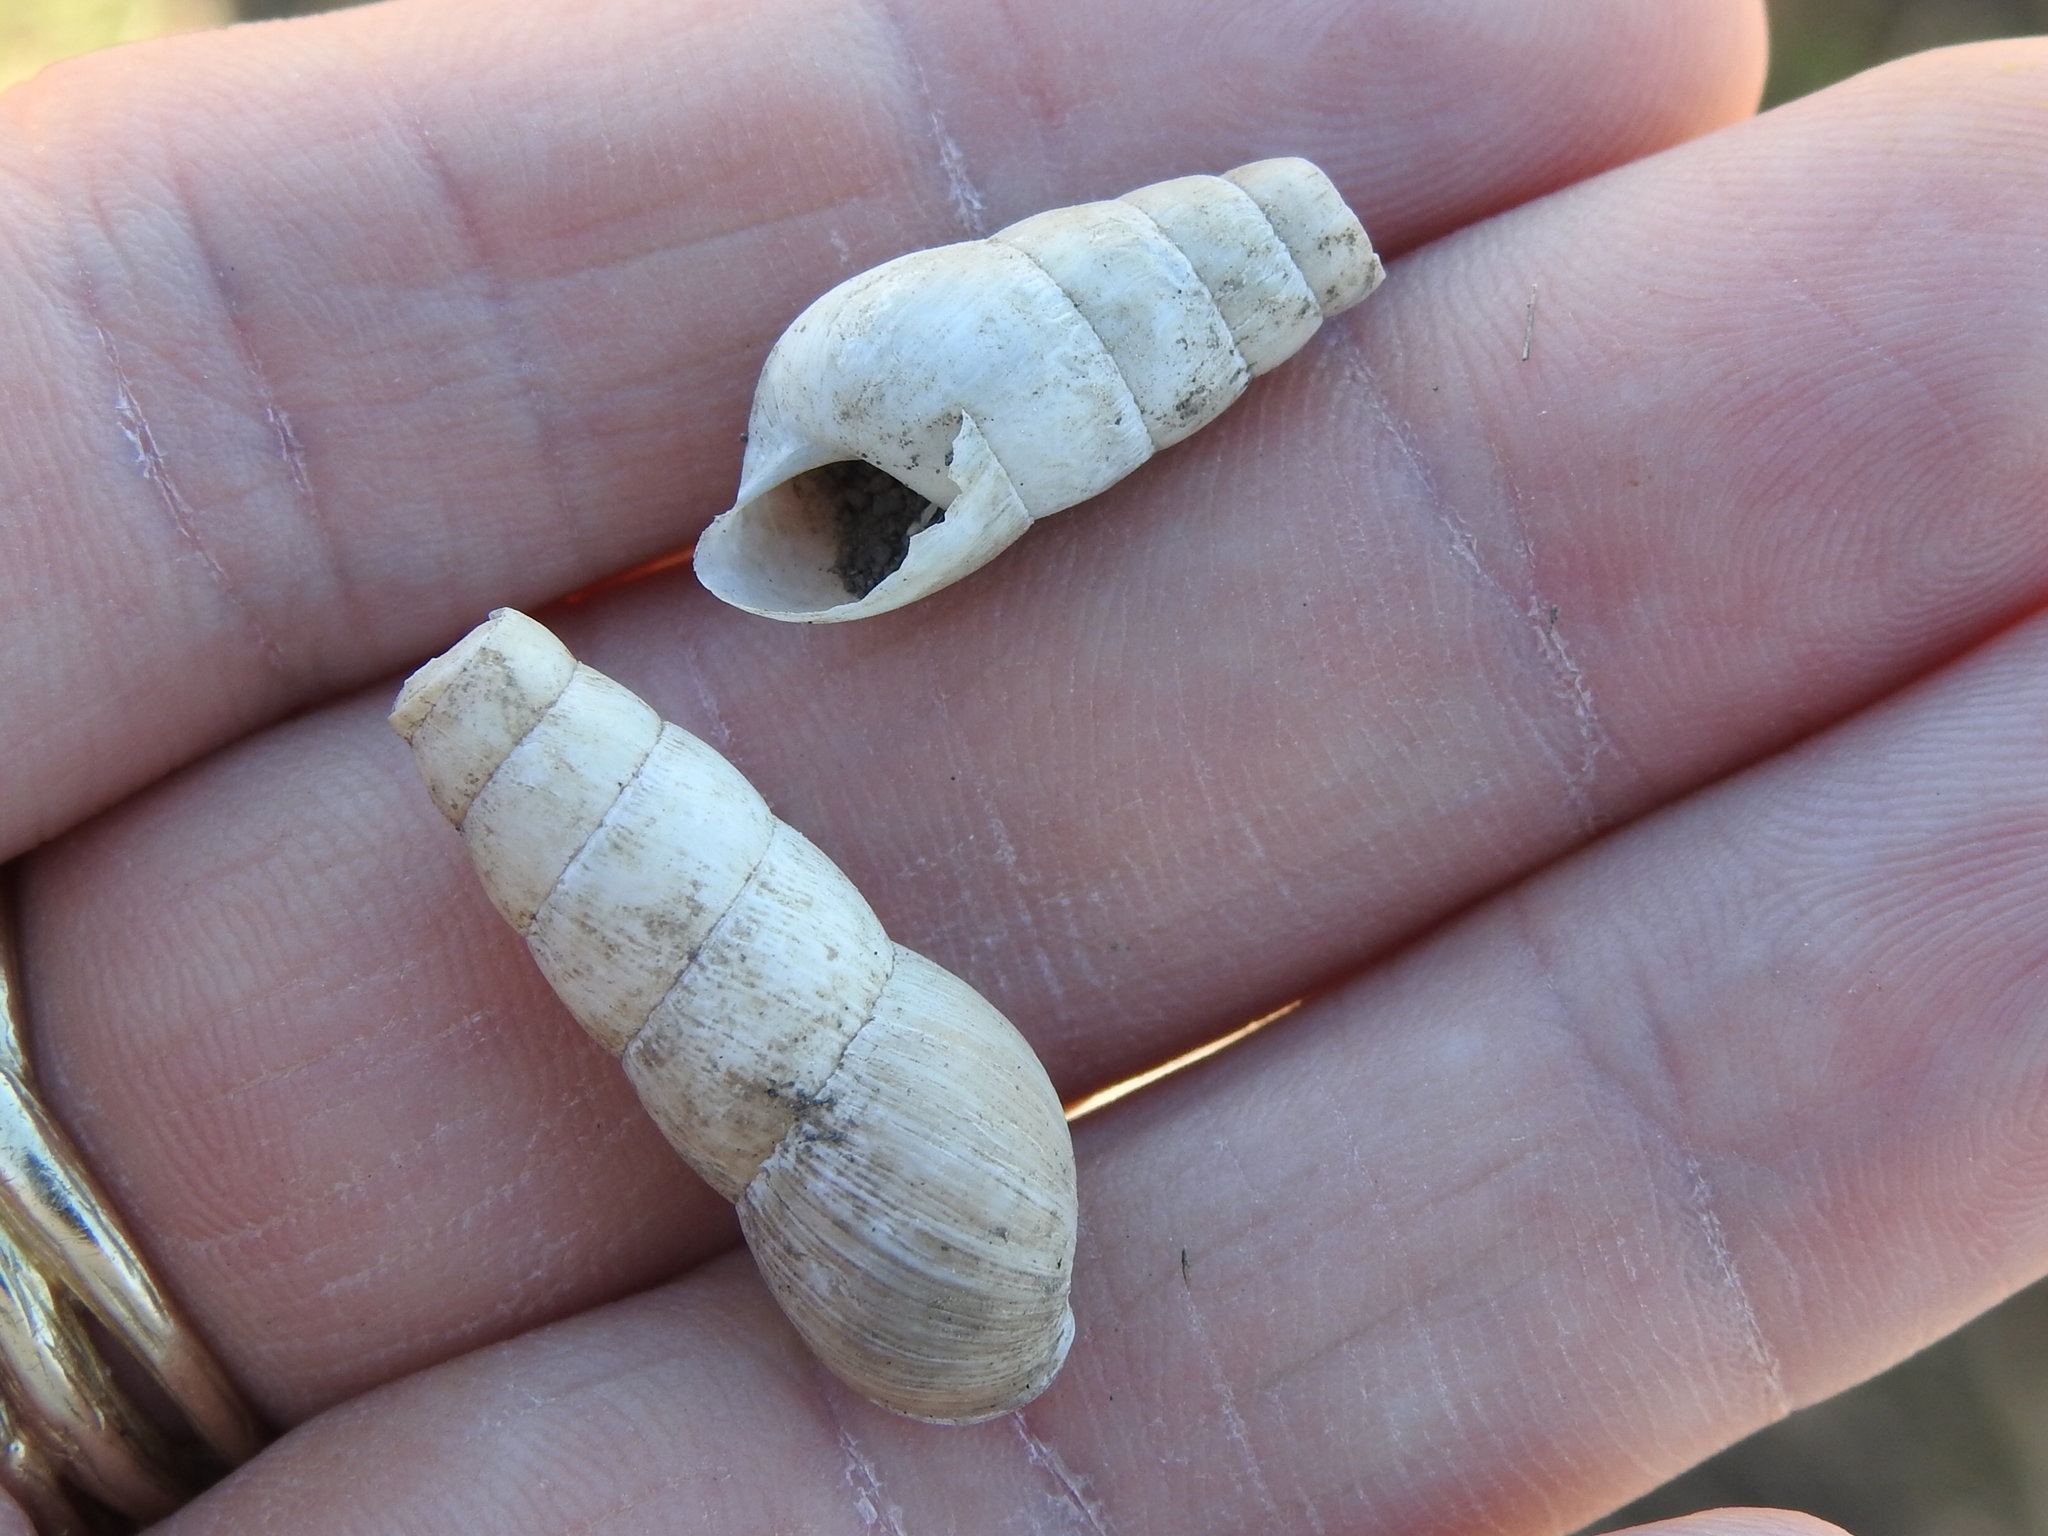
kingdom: Animalia
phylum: Mollusca
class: Gastropoda
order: Stylommatophora
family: Achatinidae
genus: Rumina
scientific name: Rumina decollata
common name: Decollate snail
